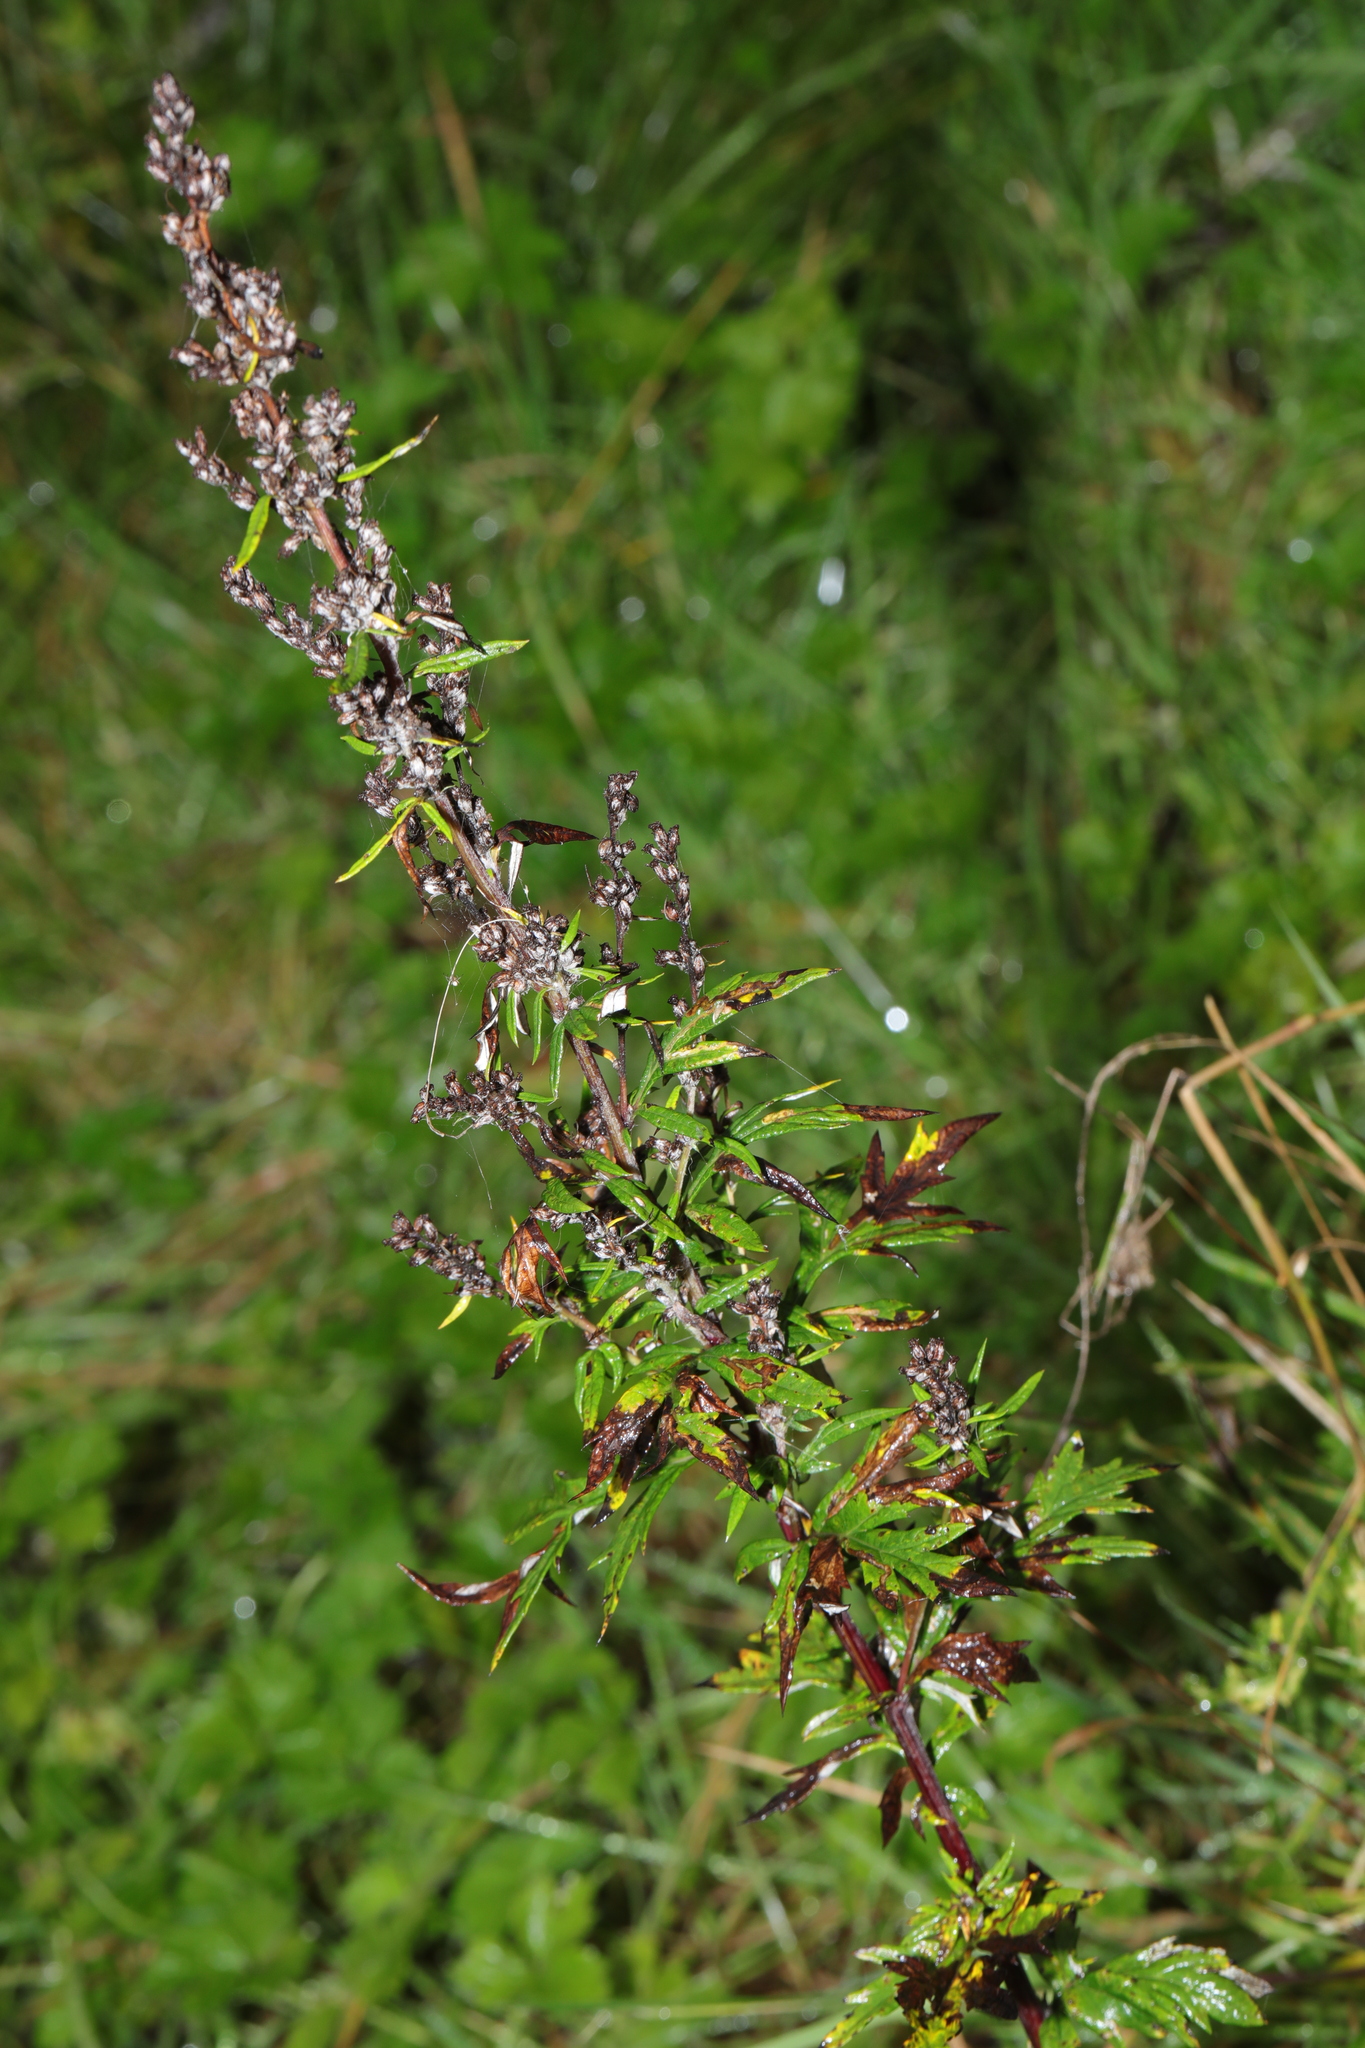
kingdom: Plantae
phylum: Tracheophyta
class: Magnoliopsida
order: Asterales
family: Asteraceae
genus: Artemisia
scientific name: Artemisia vulgaris
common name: Mugwort
